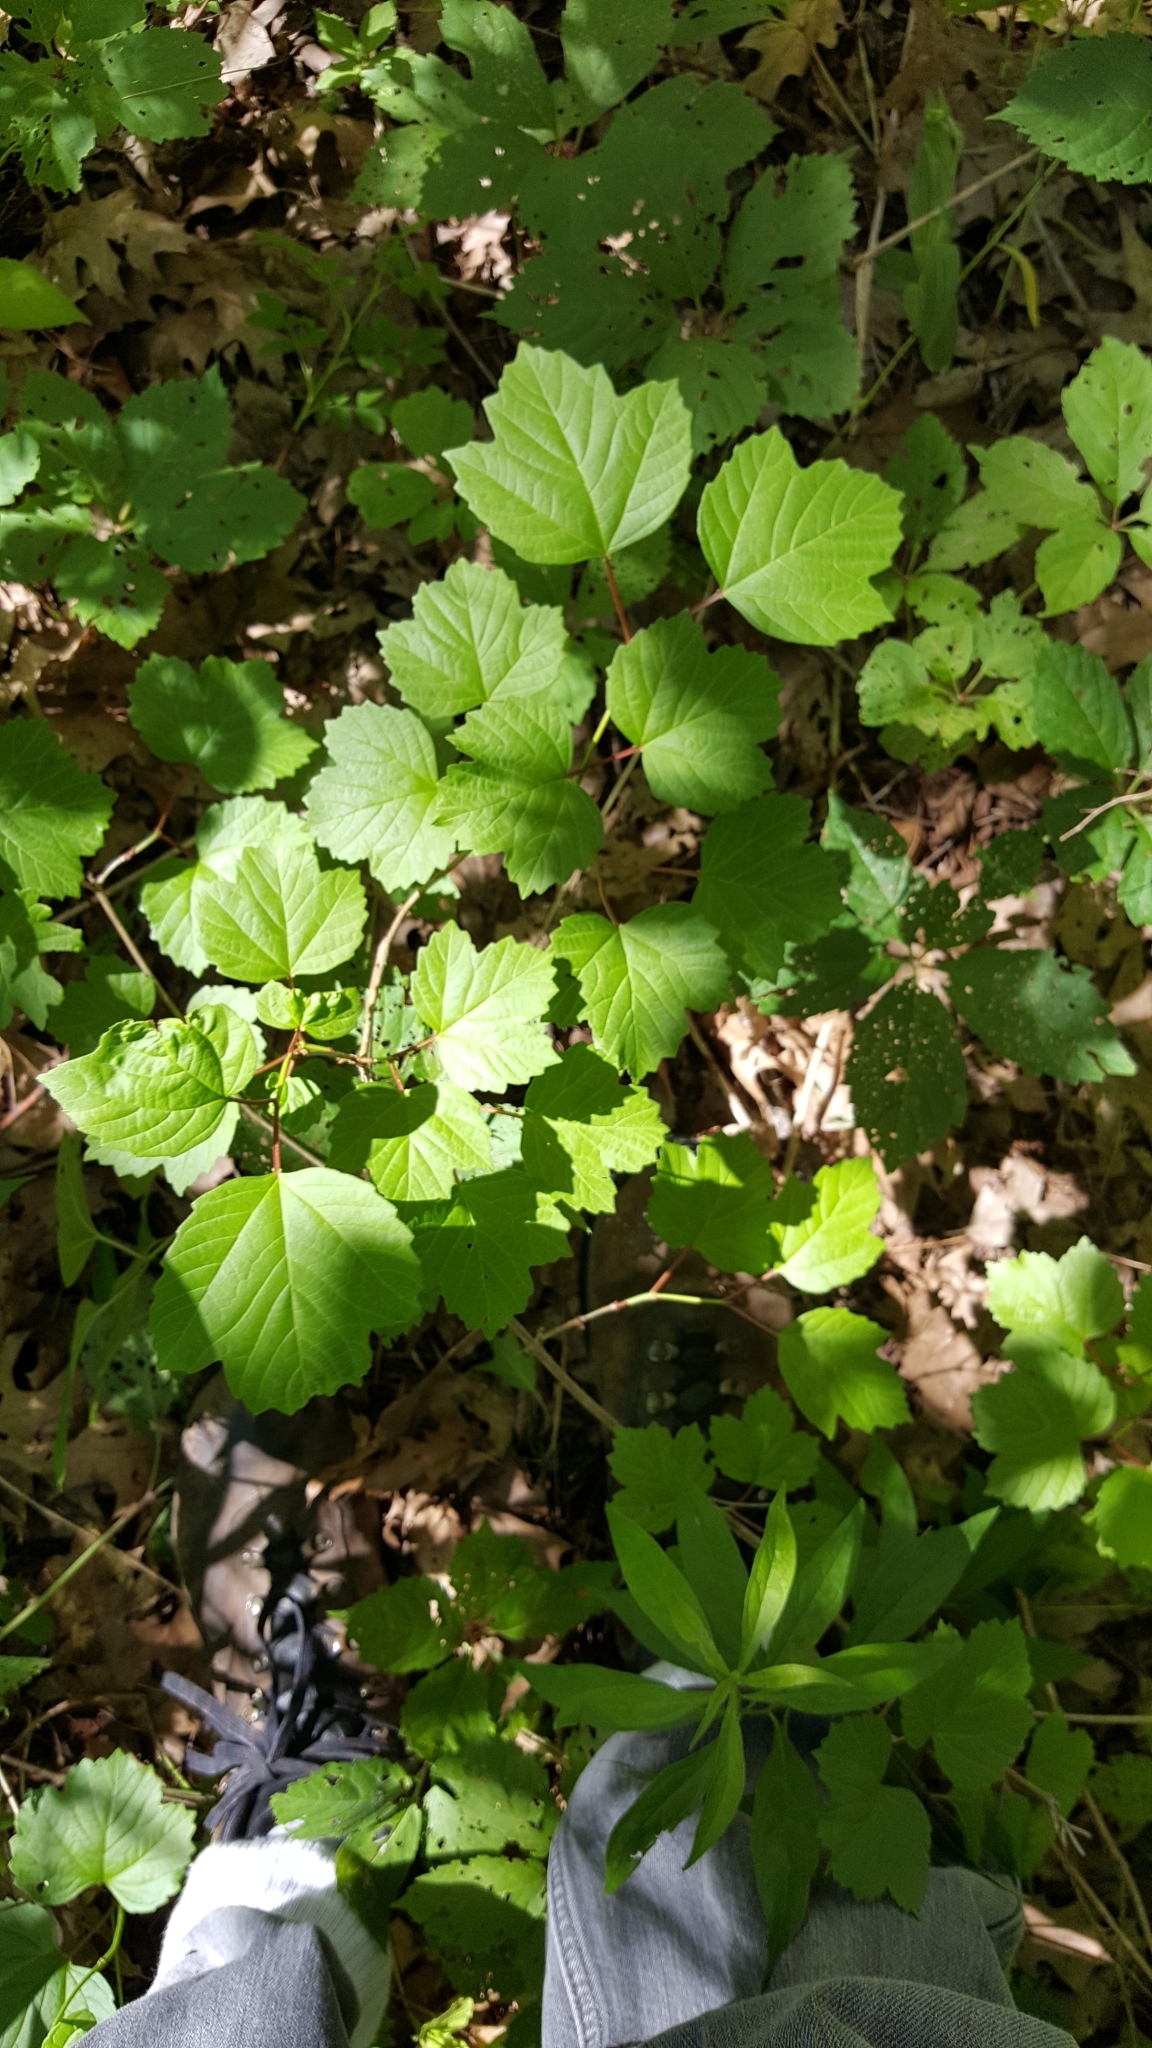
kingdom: Plantae
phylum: Tracheophyta
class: Magnoliopsida
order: Dipsacales
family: Viburnaceae
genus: Viburnum
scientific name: Viburnum opulus
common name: Guelder-rose
